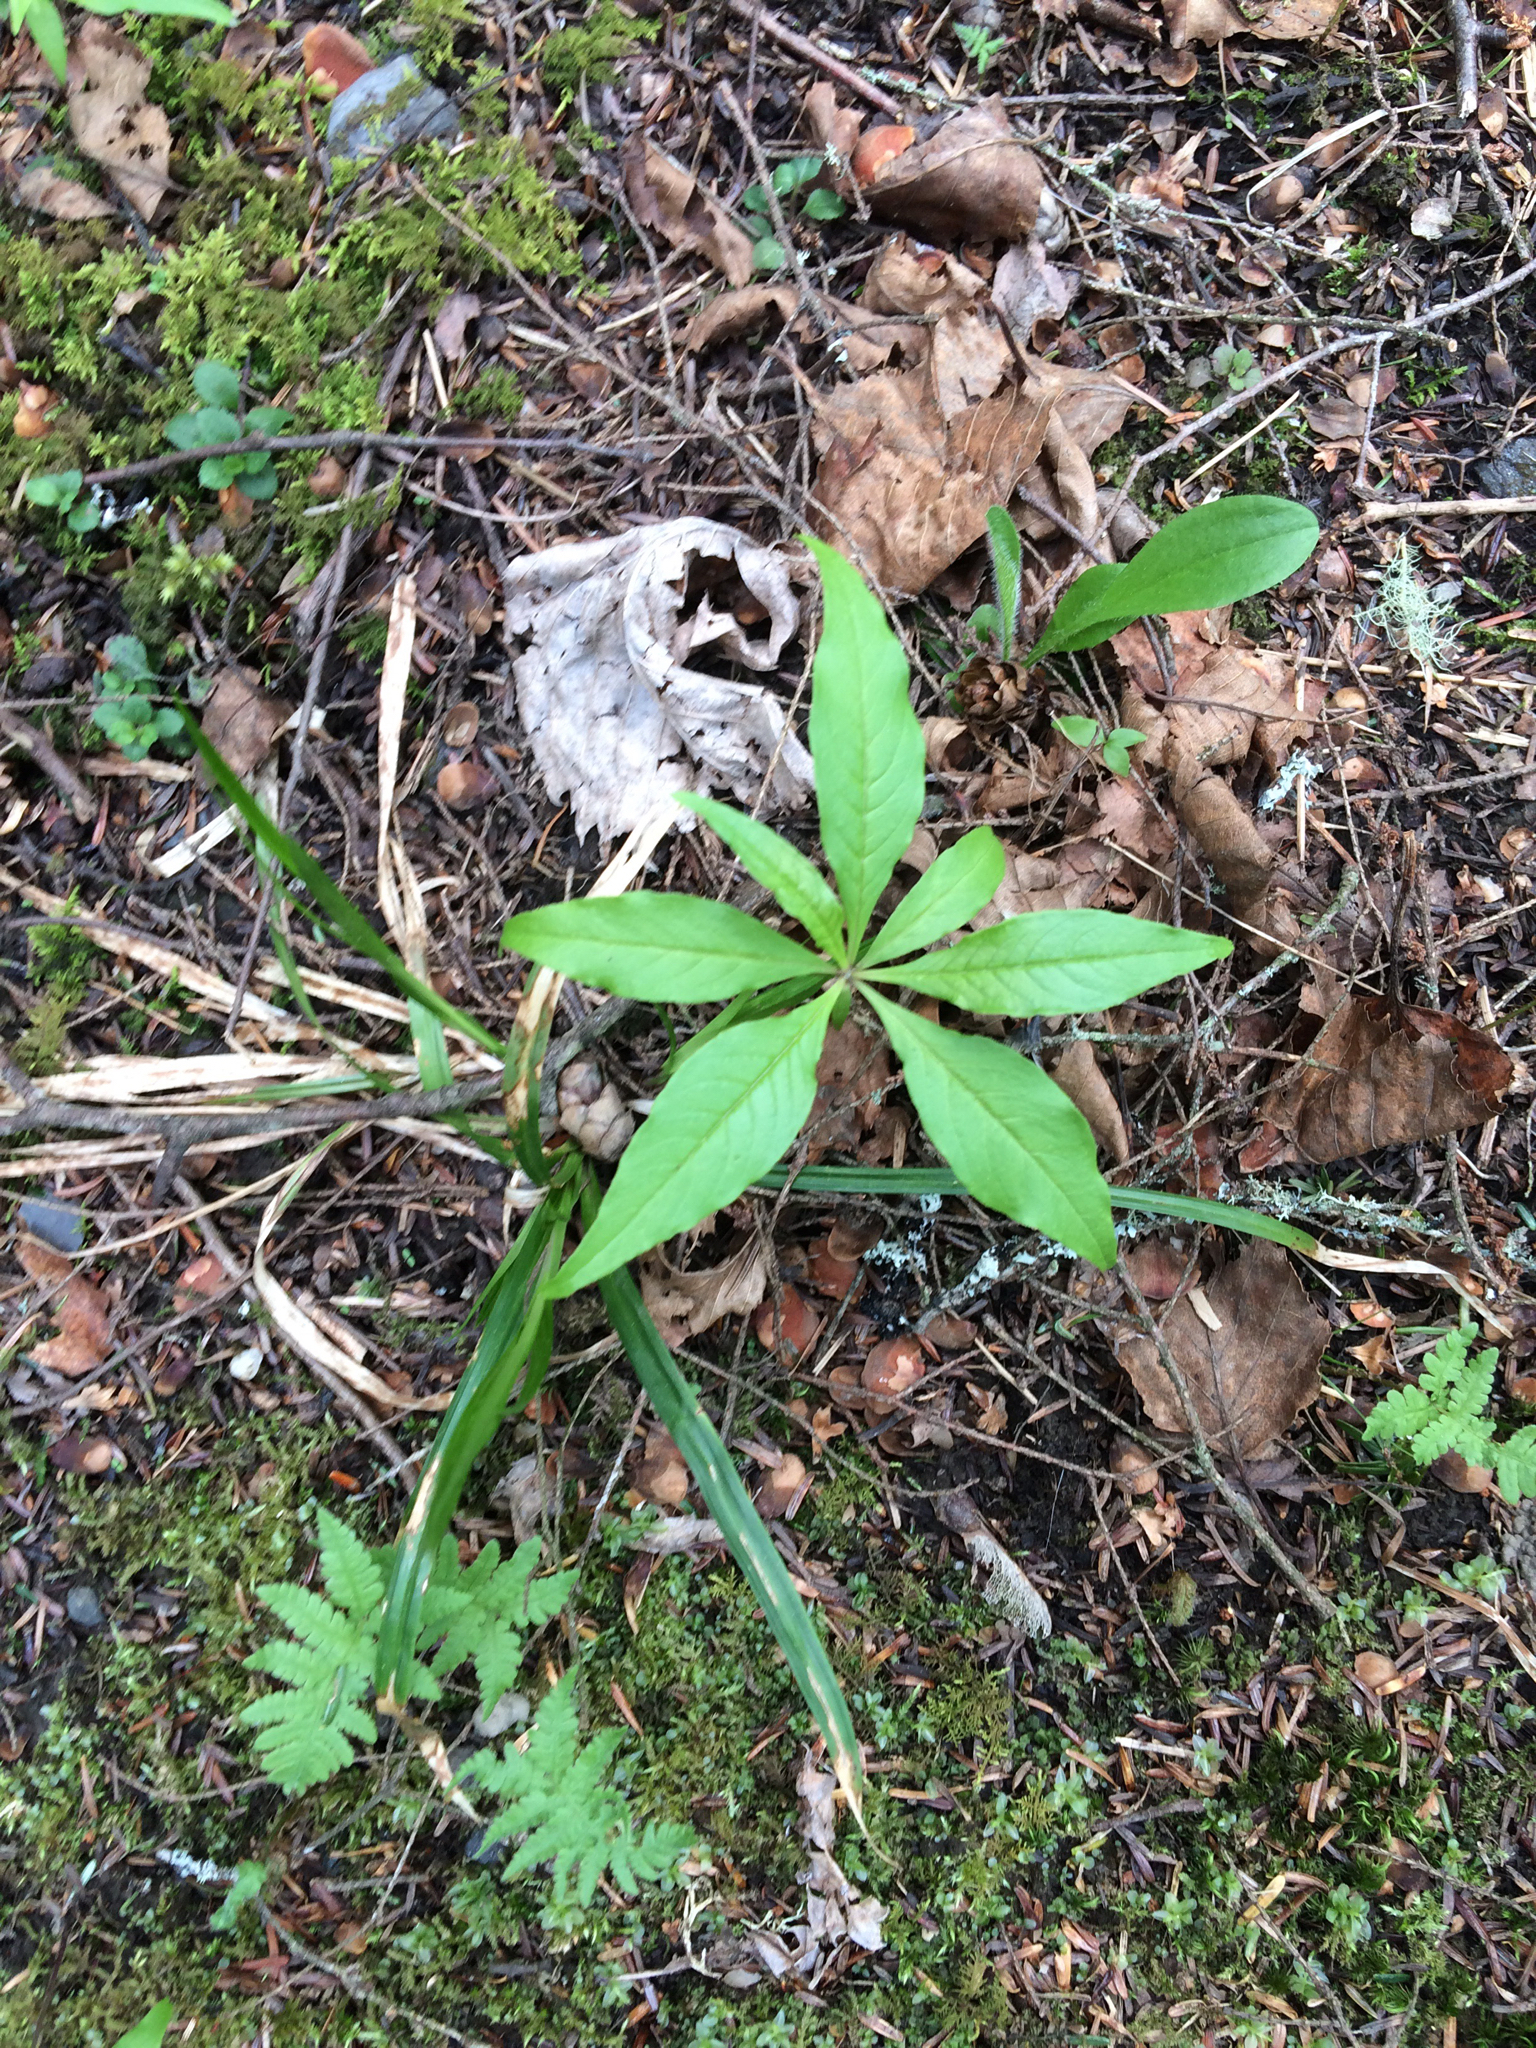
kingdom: Plantae
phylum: Tracheophyta
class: Magnoliopsida
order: Ericales
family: Primulaceae
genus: Lysimachia
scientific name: Lysimachia borealis
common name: American starflower
